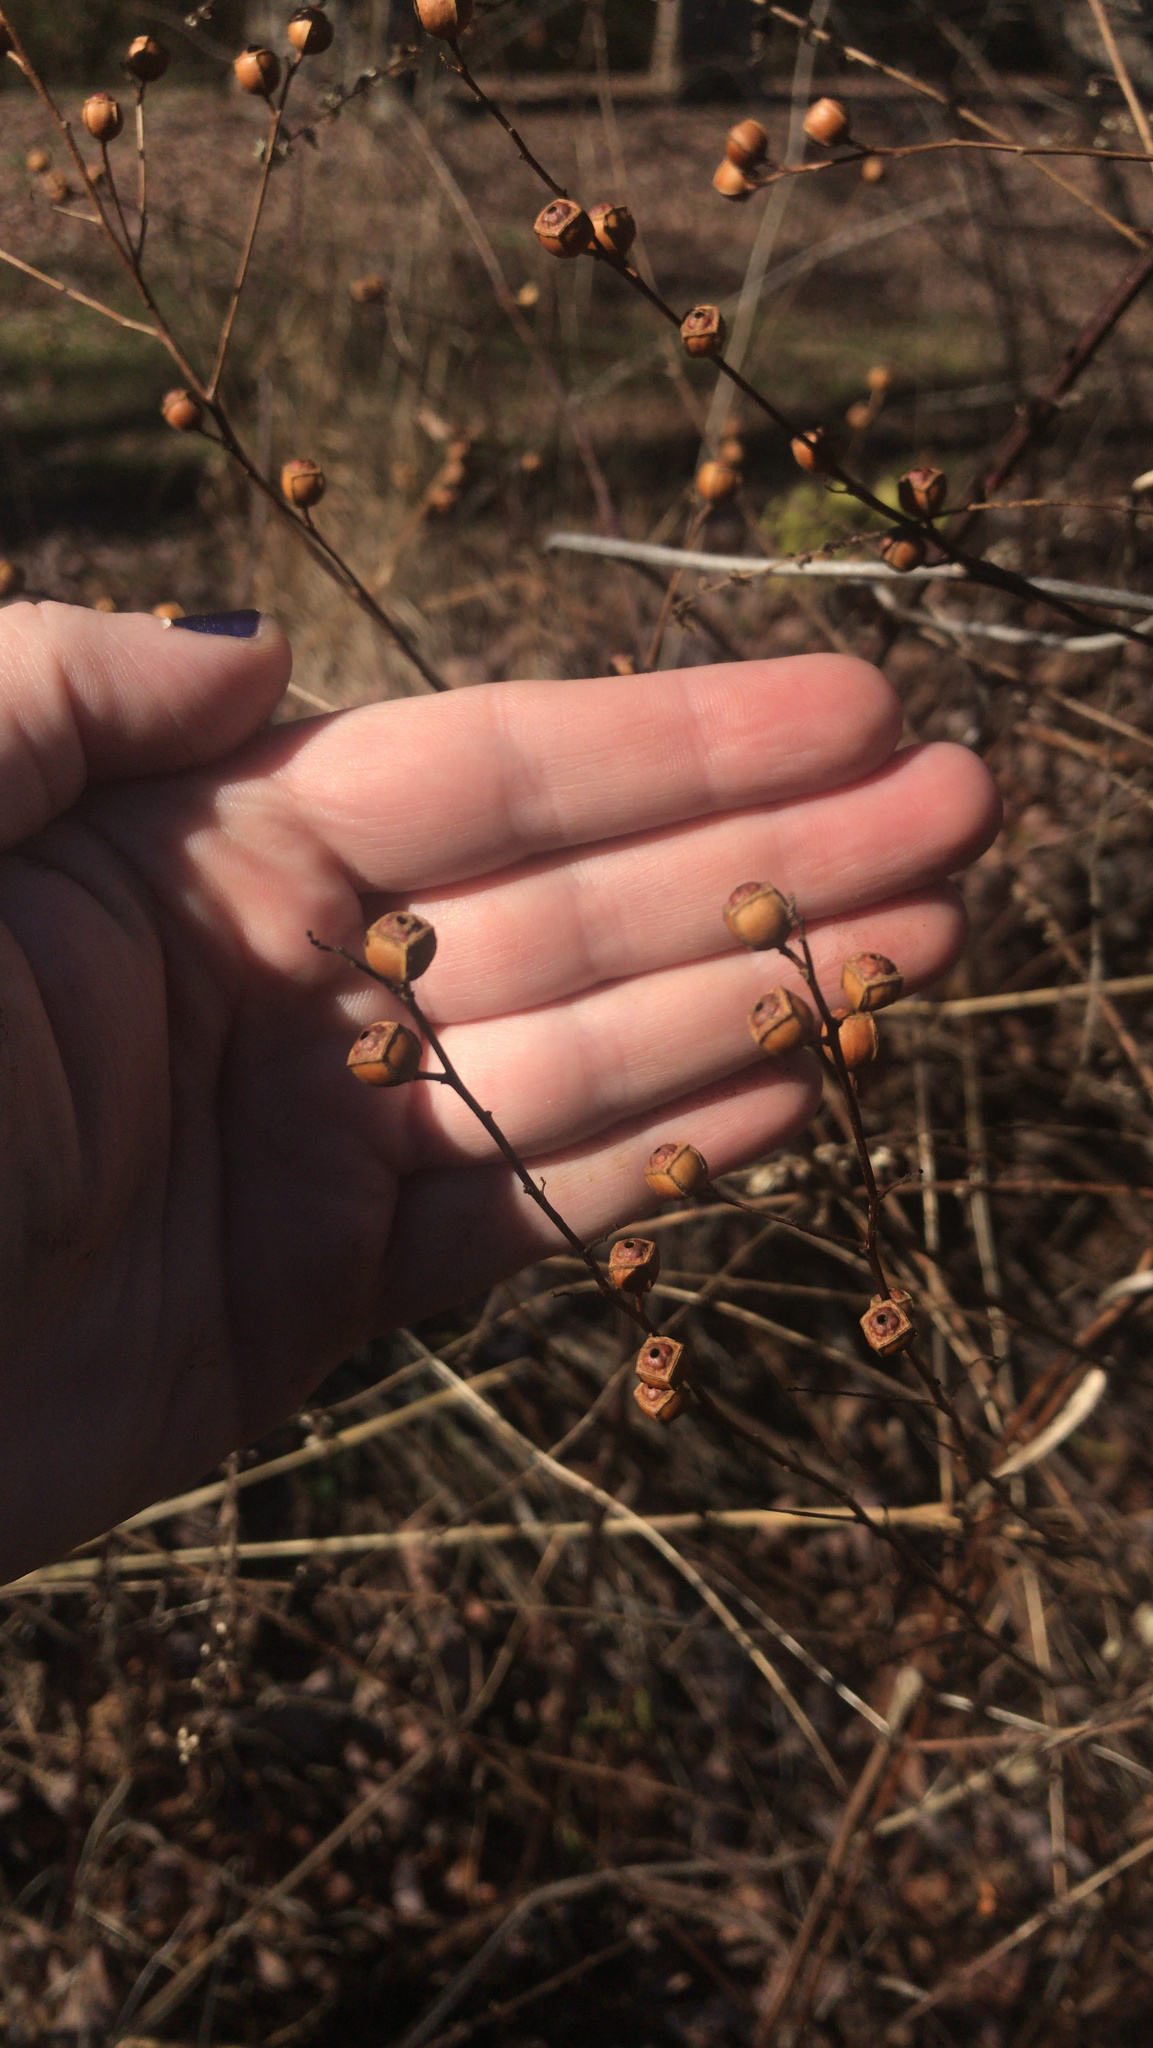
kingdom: Plantae
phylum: Tracheophyta
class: Magnoliopsida
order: Myrtales
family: Onagraceae
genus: Ludwigia
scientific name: Ludwigia alternifolia
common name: Rattlebox
